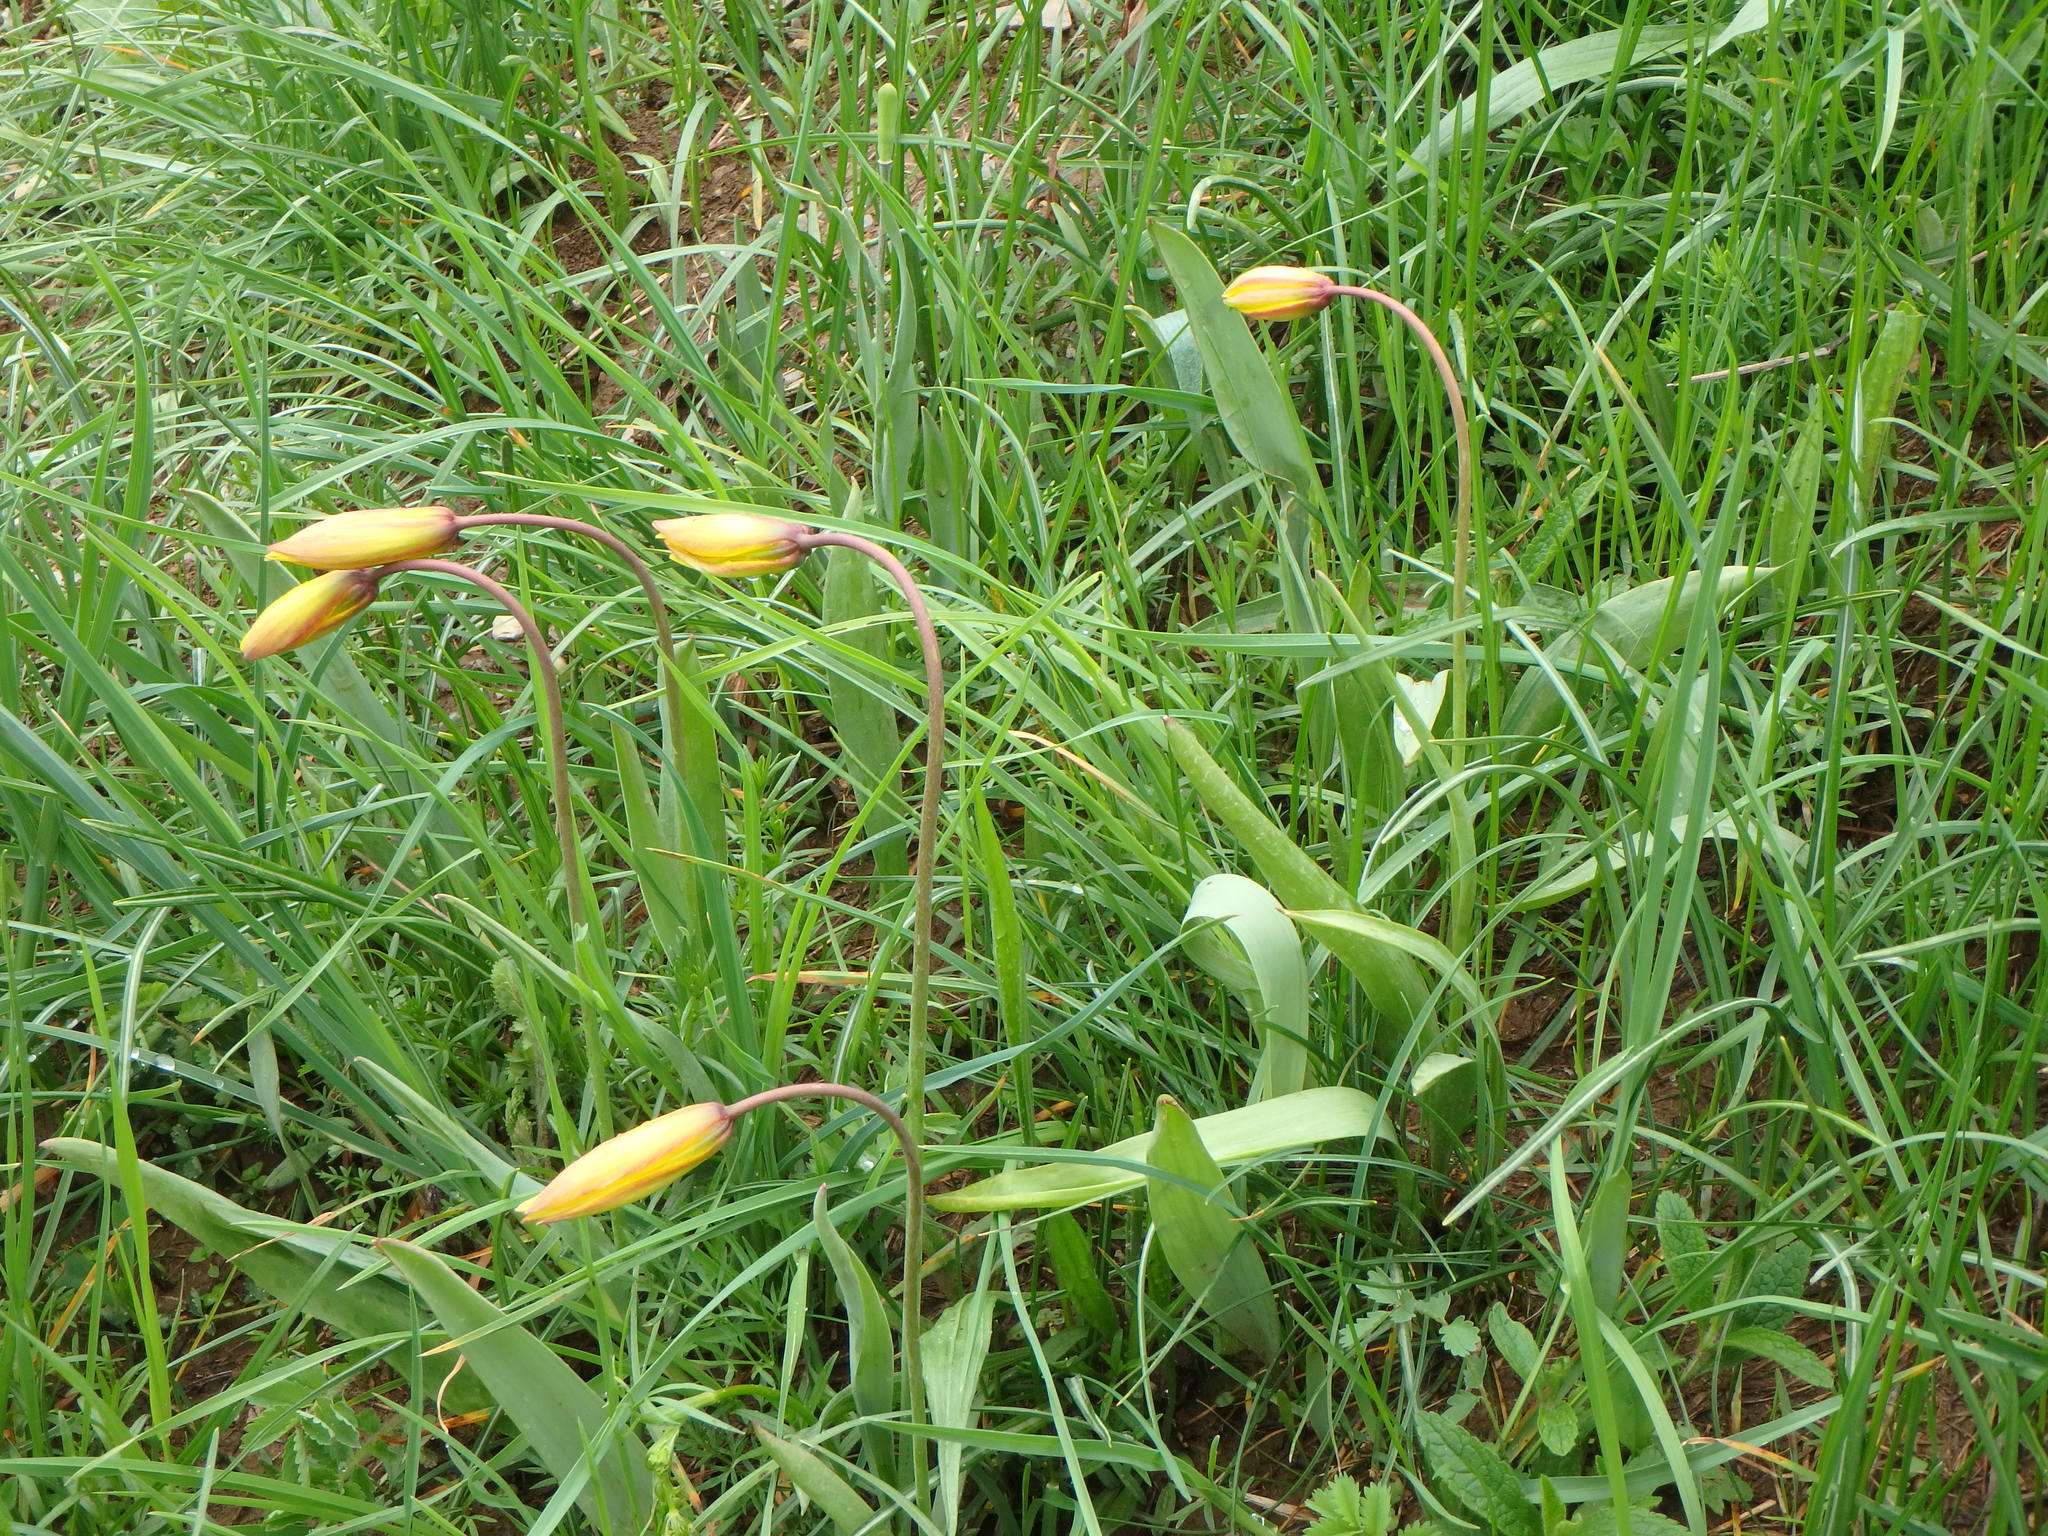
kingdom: Plantae
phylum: Tracheophyta
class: Liliopsida
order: Liliales
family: Liliaceae
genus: Tulipa
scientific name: Tulipa sylvestris
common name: Wild tulip
